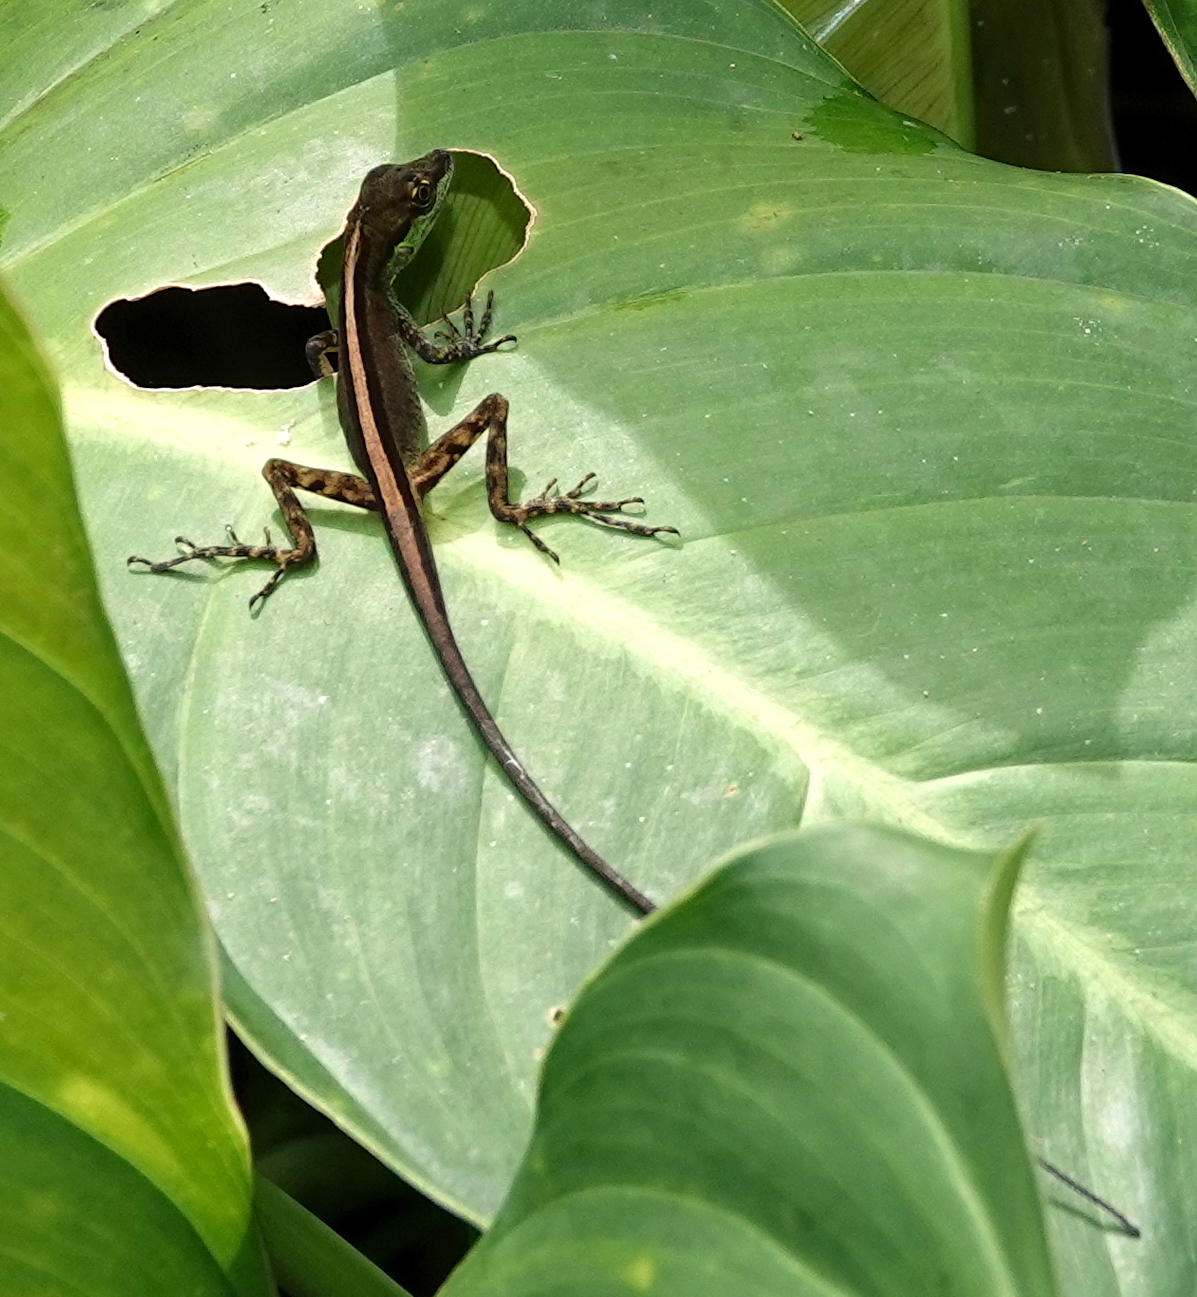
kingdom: Animalia
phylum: Chordata
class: Squamata
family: Dactyloidae
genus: Anolis
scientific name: Anolis ventrimaculatus
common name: Speckled anole
